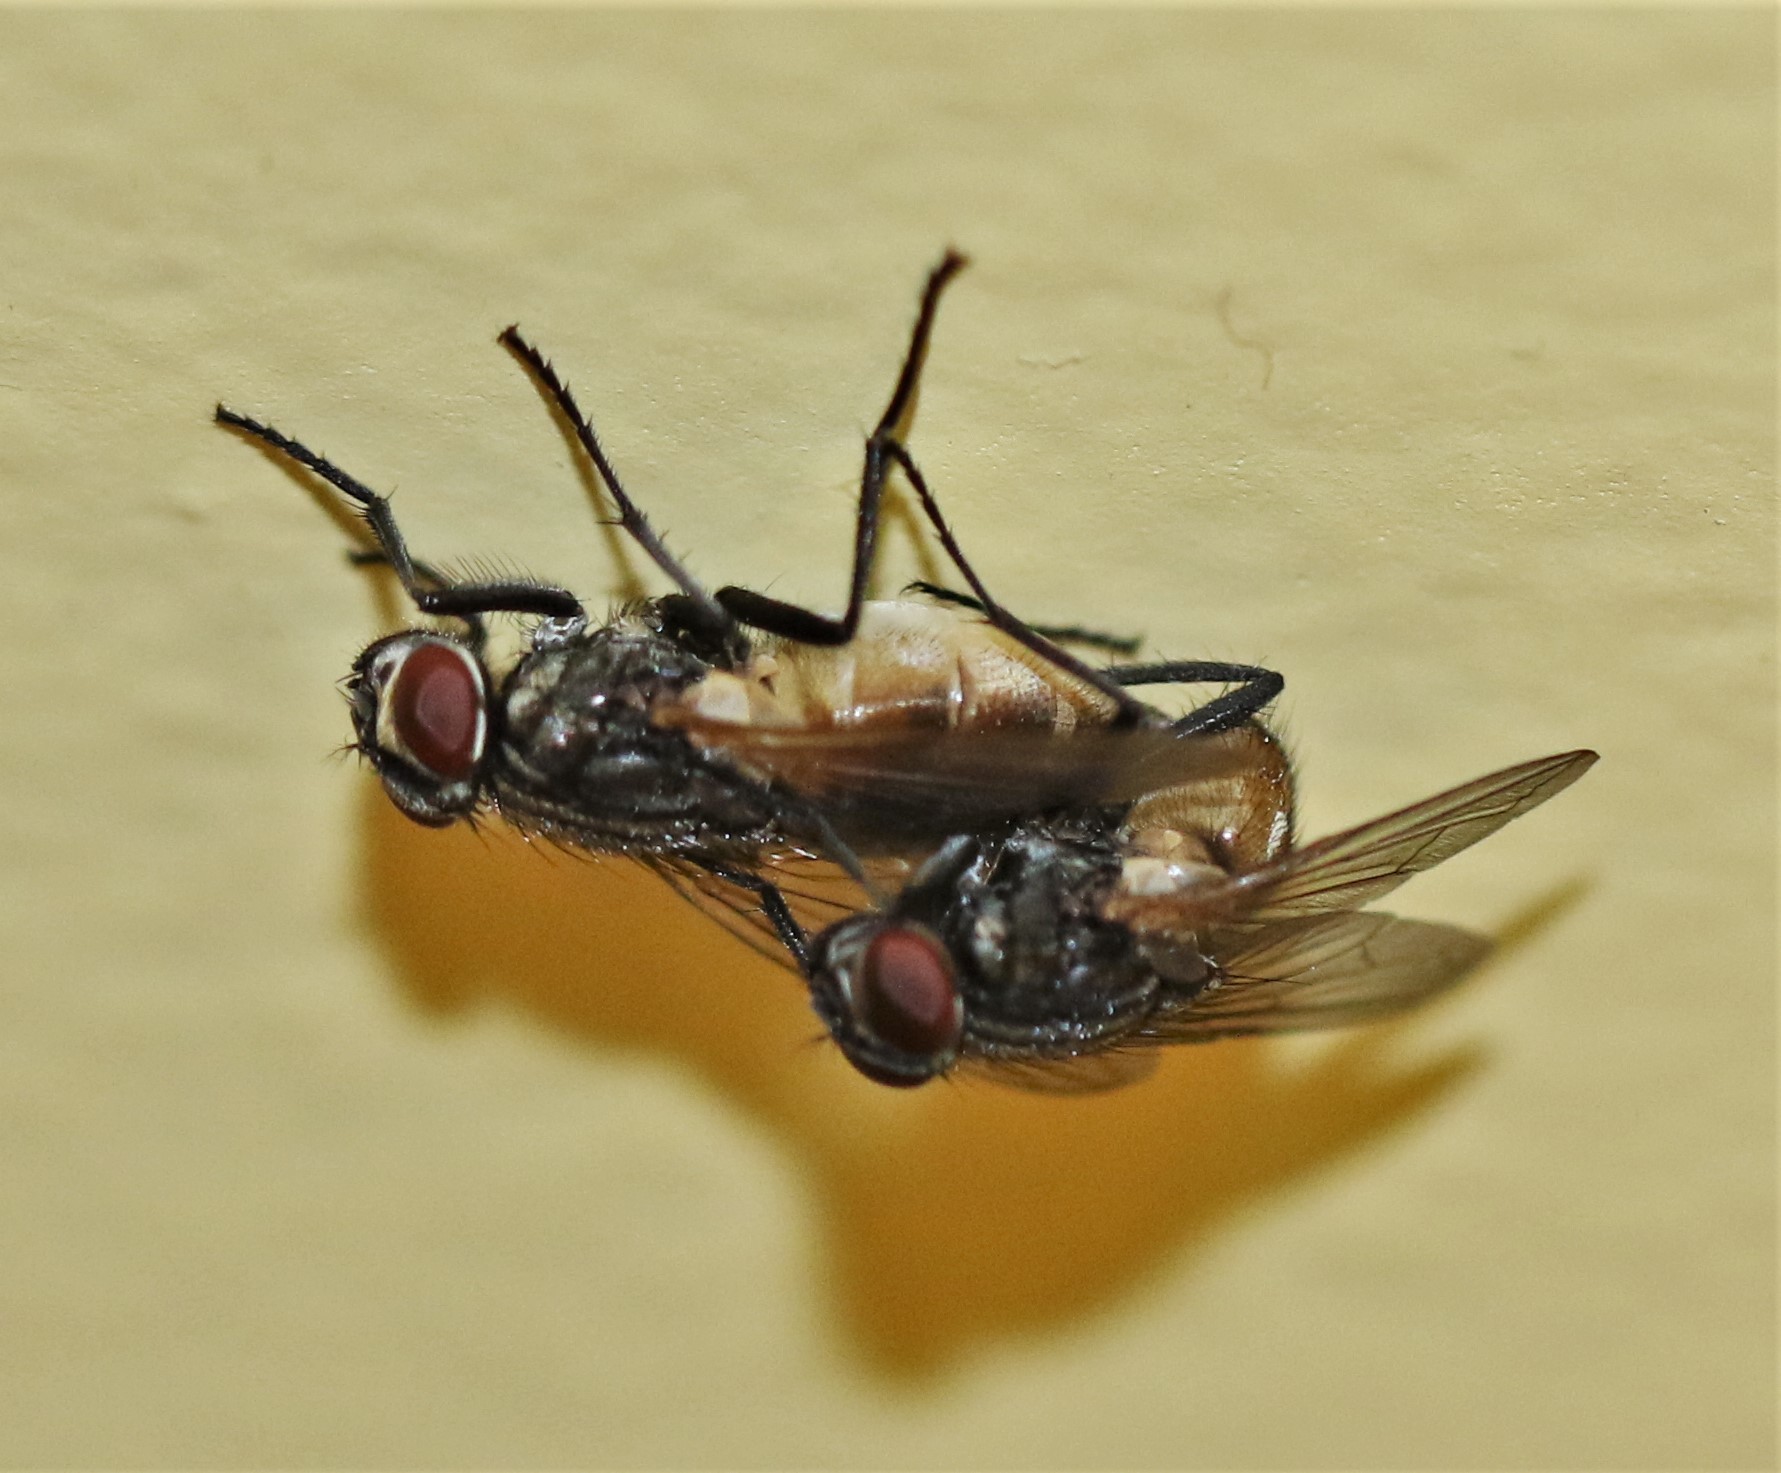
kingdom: Animalia
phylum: Arthropoda
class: Insecta
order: Diptera
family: Muscidae
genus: Musca
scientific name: Musca domestica
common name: House fly
